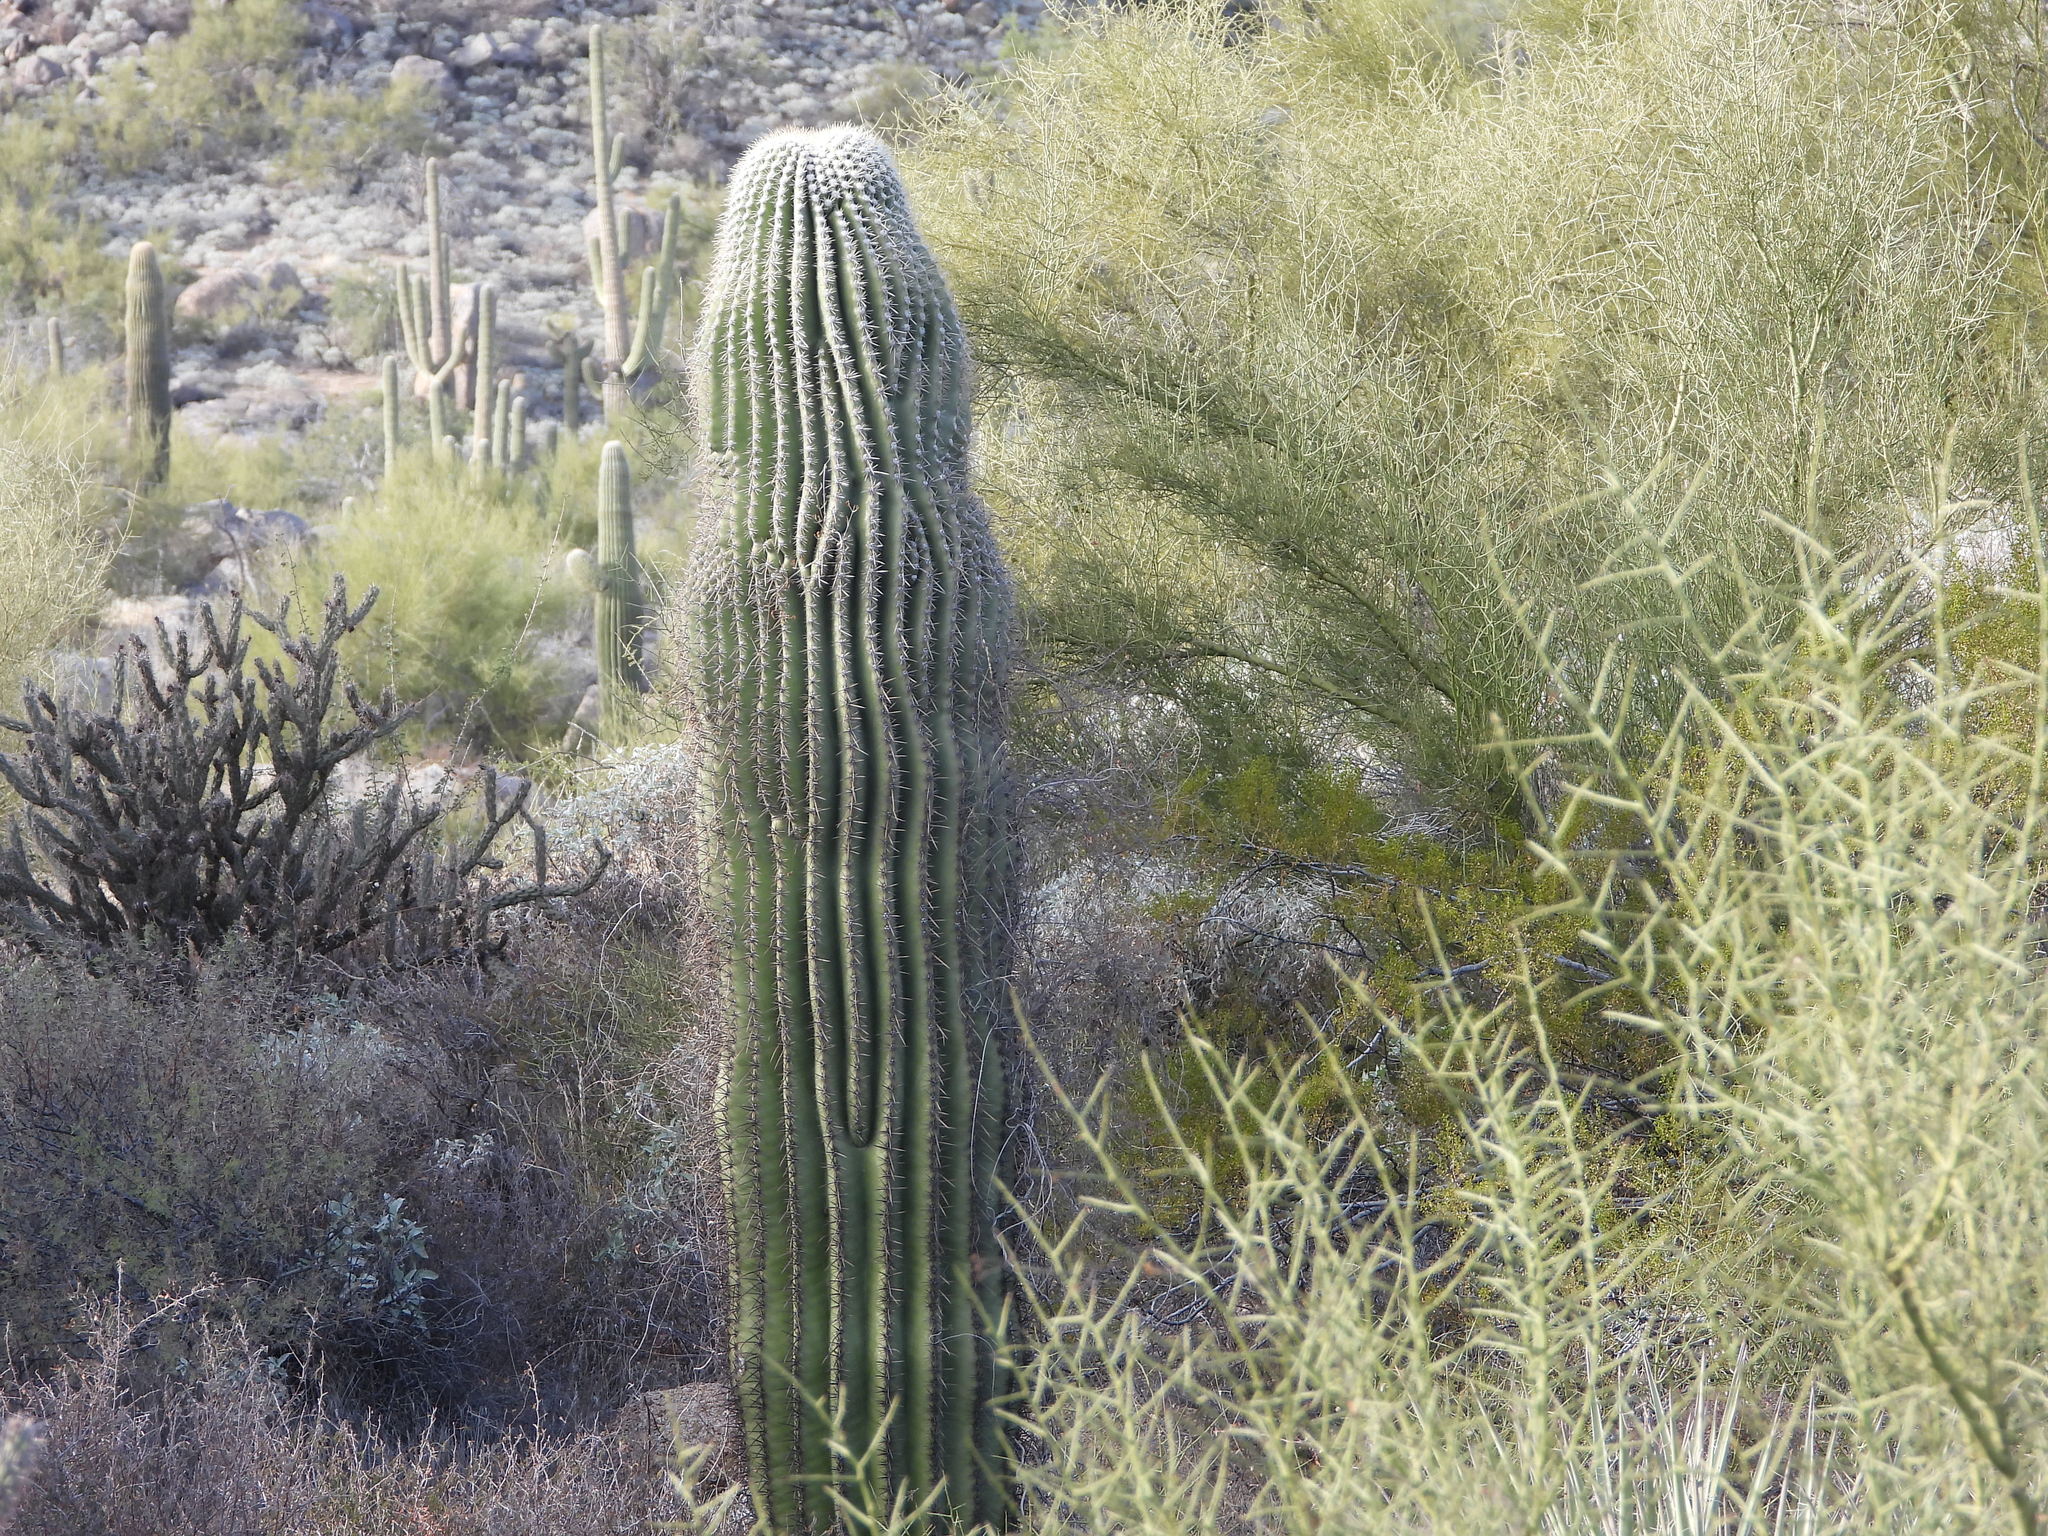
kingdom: Plantae
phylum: Tracheophyta
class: Magnoliopsida
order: Caryophyllales
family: Cactaceae
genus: Carnegiea
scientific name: Carnegiea gigantea
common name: Saguaro
